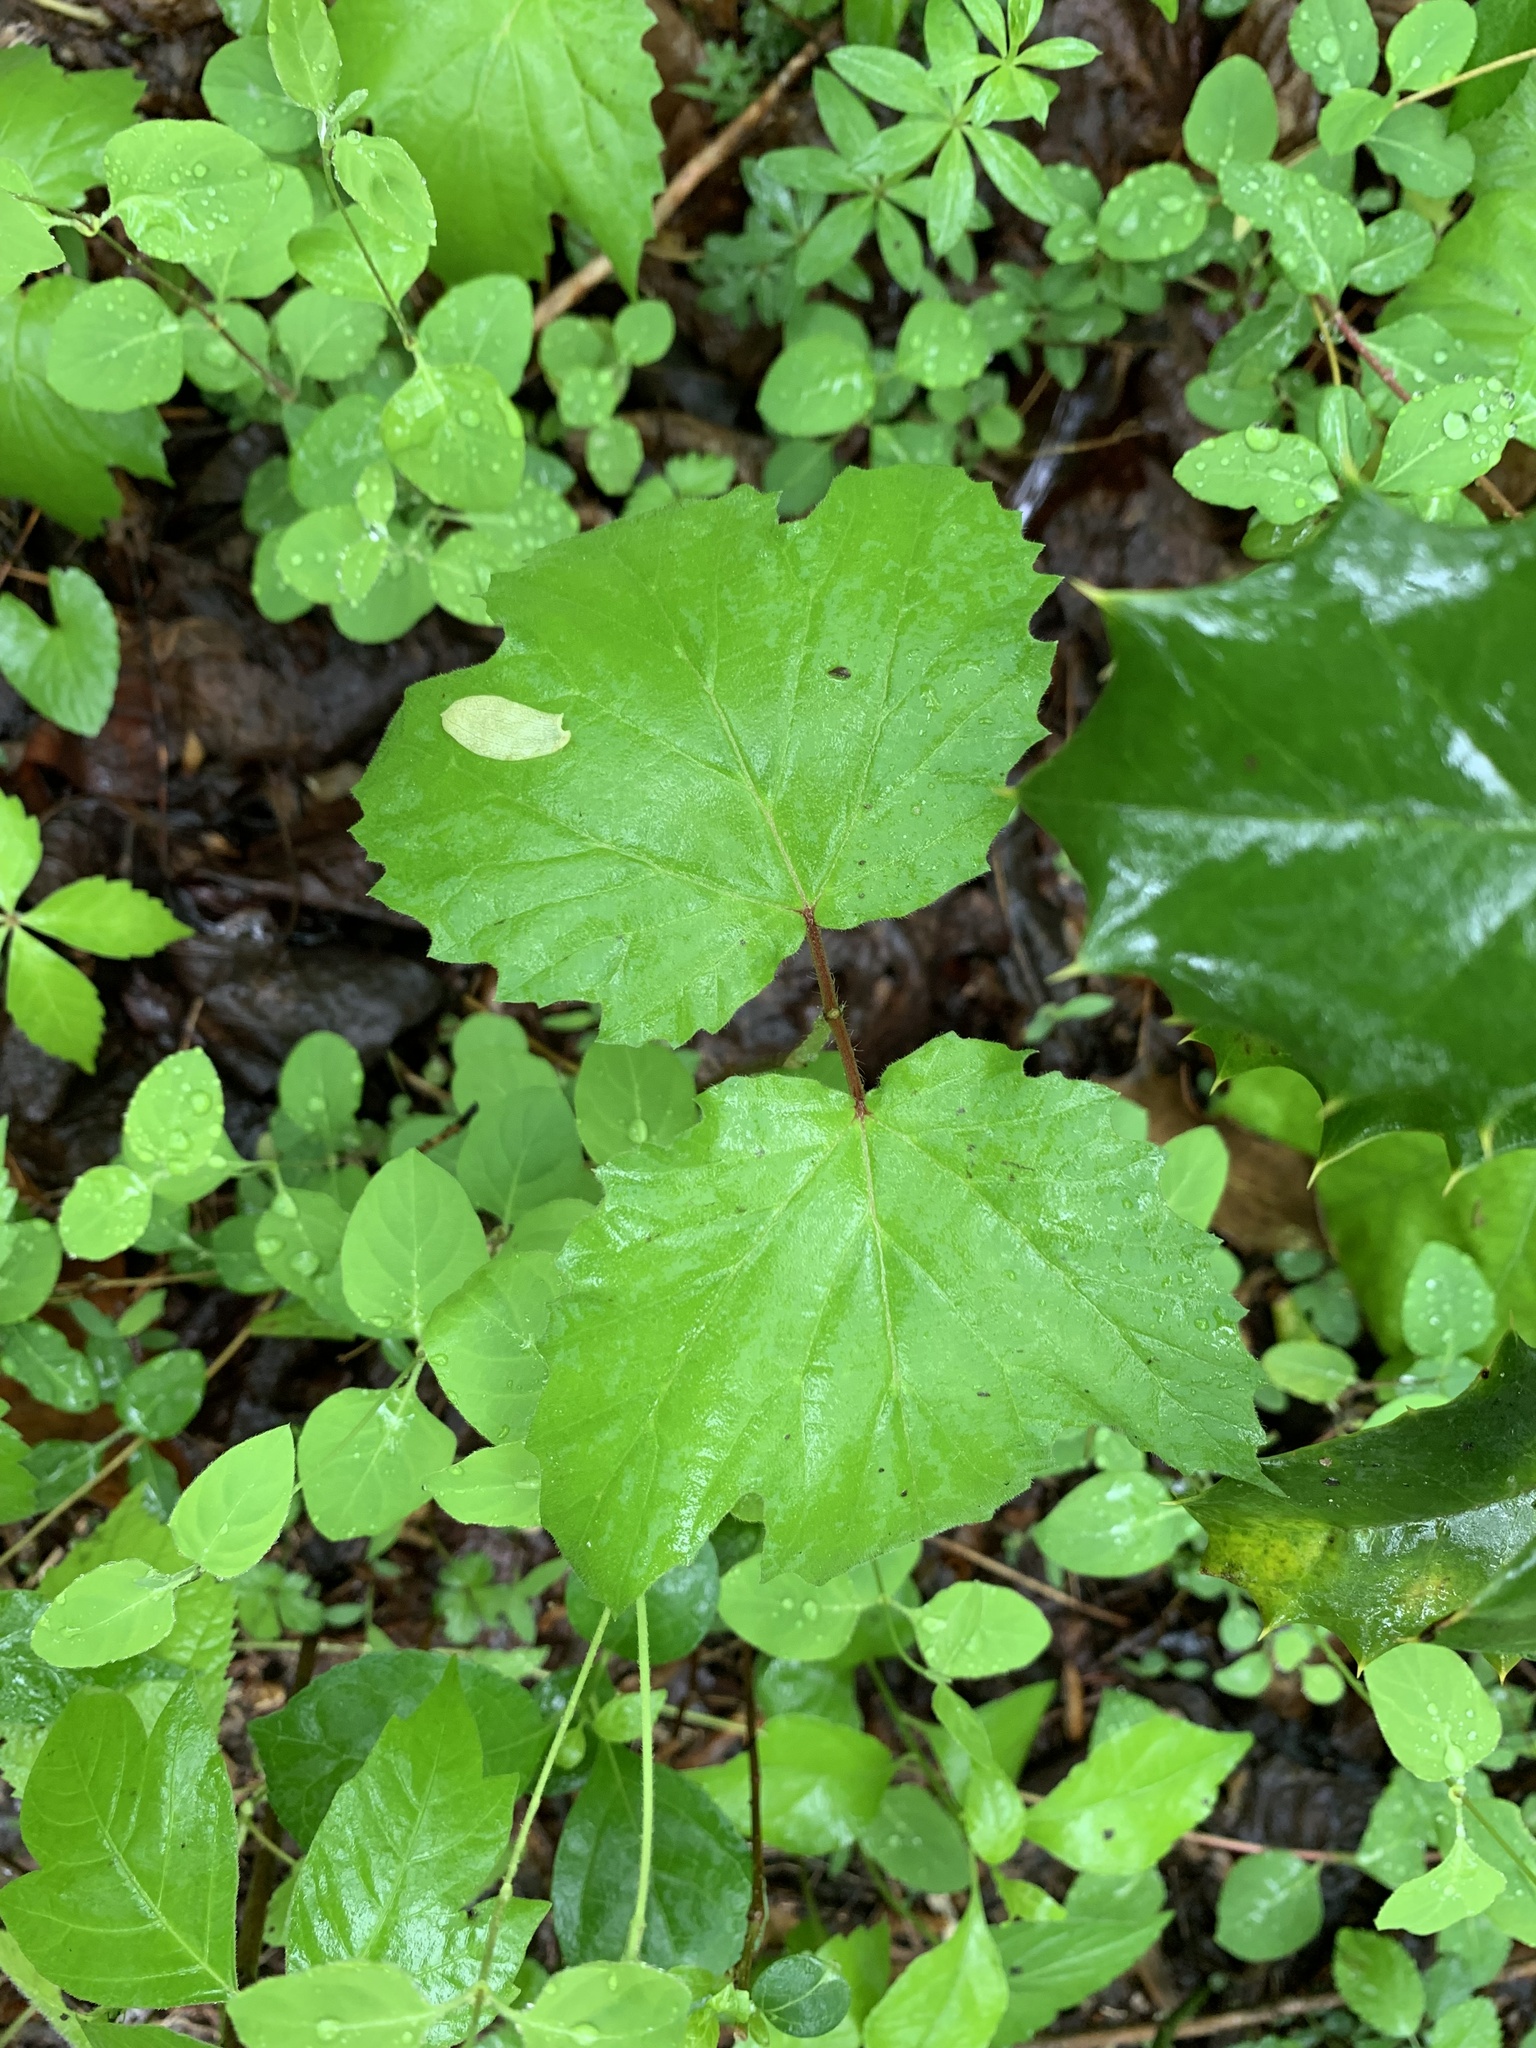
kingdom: Plantae
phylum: Tracheophyta
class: Magnoliopsida
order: Dipsacales
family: Viburnaceae
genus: Viburnum
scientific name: Viburnum acerifolium
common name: Dockmackie
